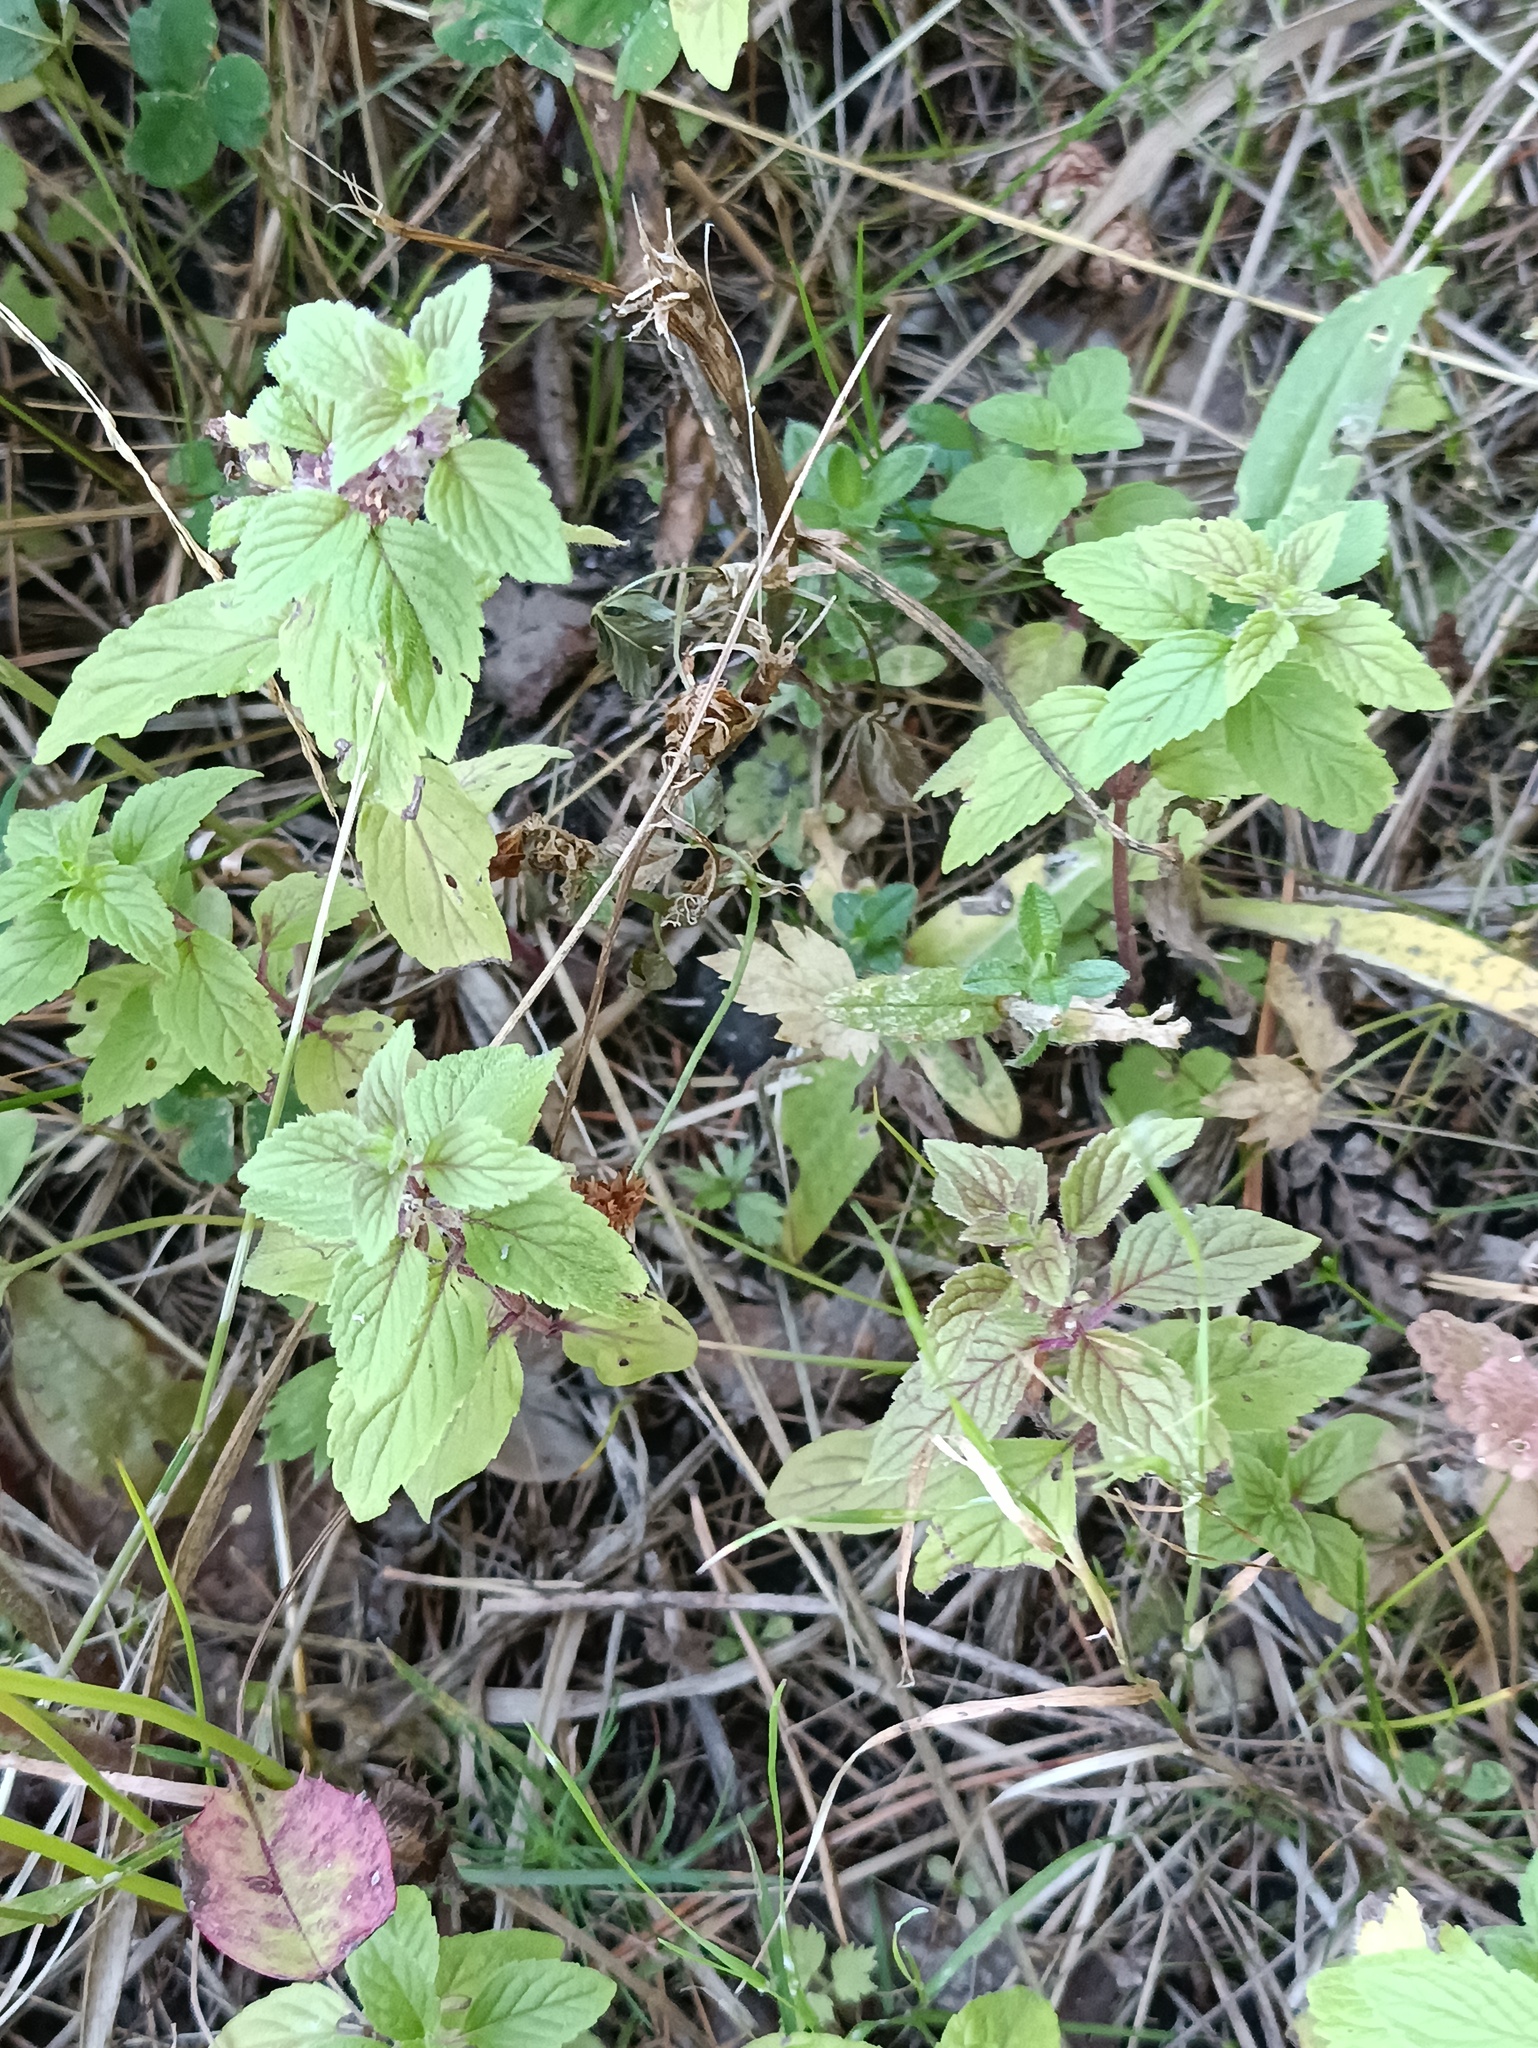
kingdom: Plantae
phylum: Tracheophyta
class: Magnoliopsida
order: Lamiales
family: Lamiaceae
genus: Mentha
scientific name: Mentha arvensis
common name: Corn mint
